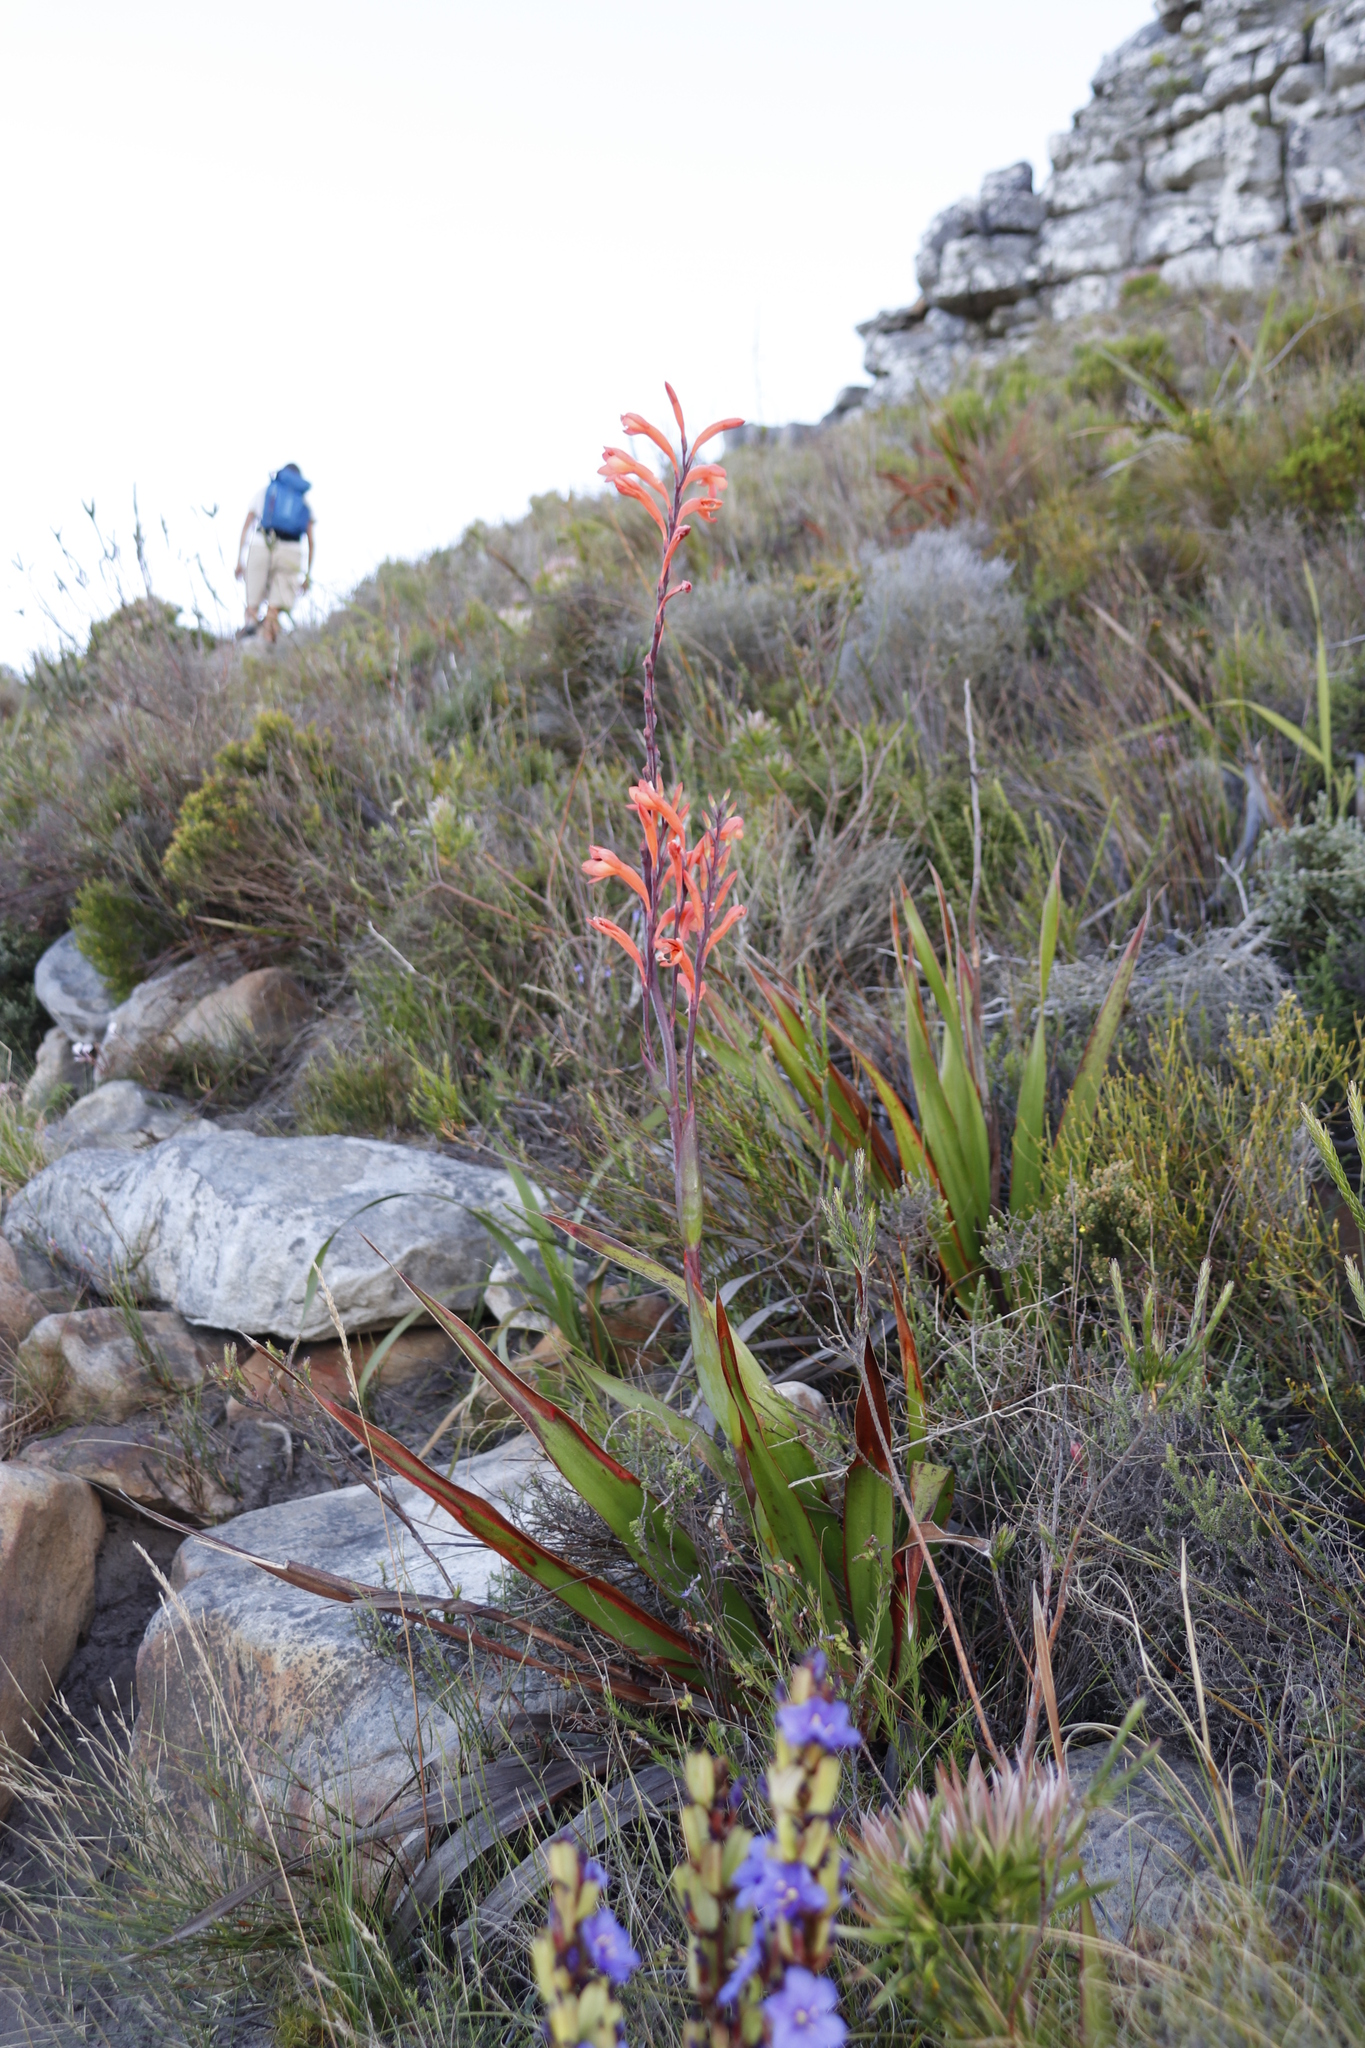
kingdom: Plantae
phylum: Tracheophyta
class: Liliopsida
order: Asparagales
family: Iridaceae
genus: Watsonia
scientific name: Watsonia tabularis
